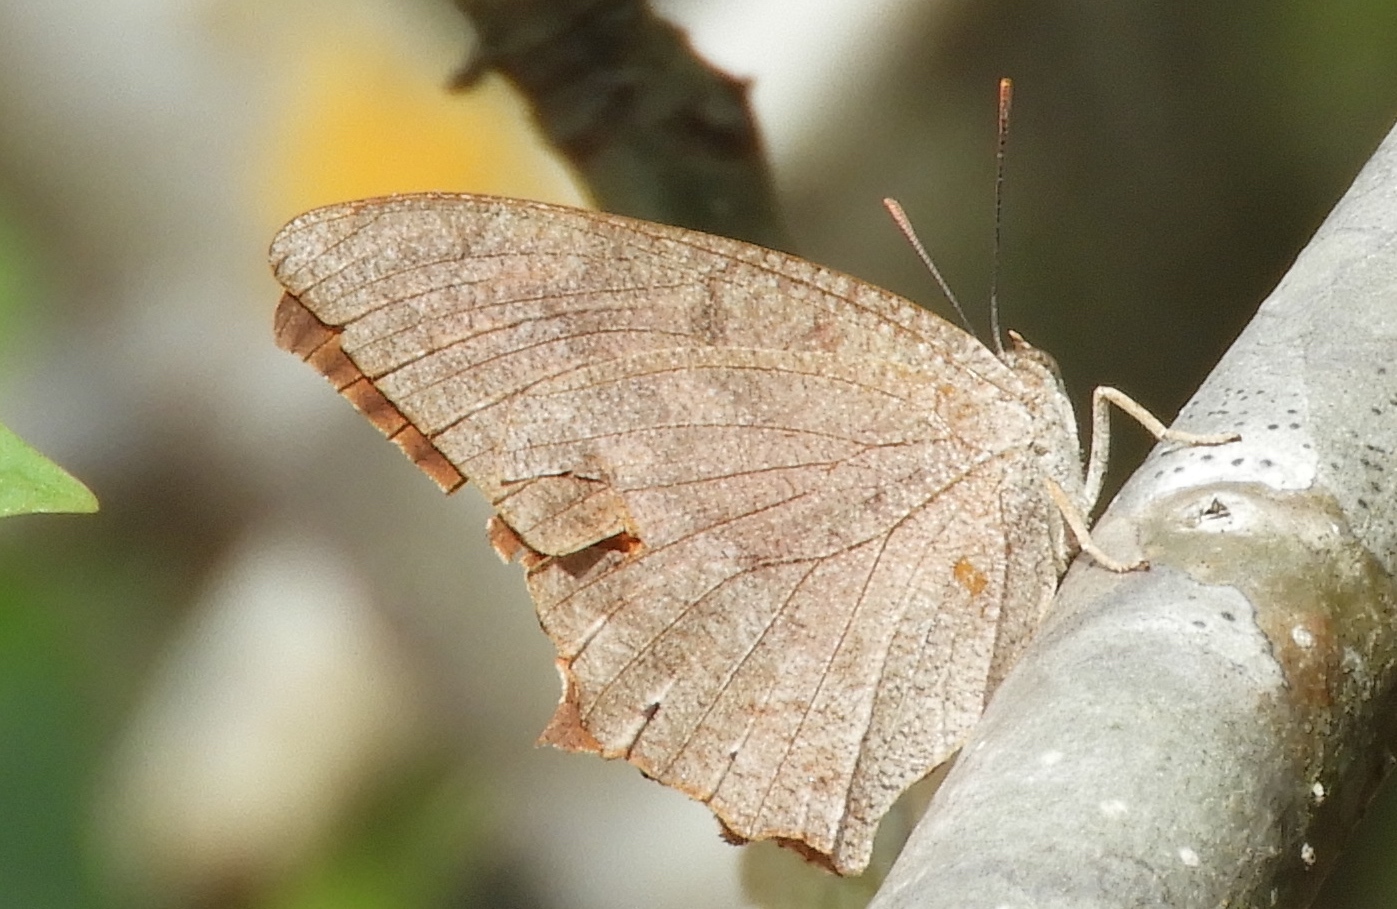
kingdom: Animalia
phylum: Arthropoda
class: Insecta
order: Lepidoptera
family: Nymphalidae
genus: Anaea
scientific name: Anaea aidea
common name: Tropical leafwing
